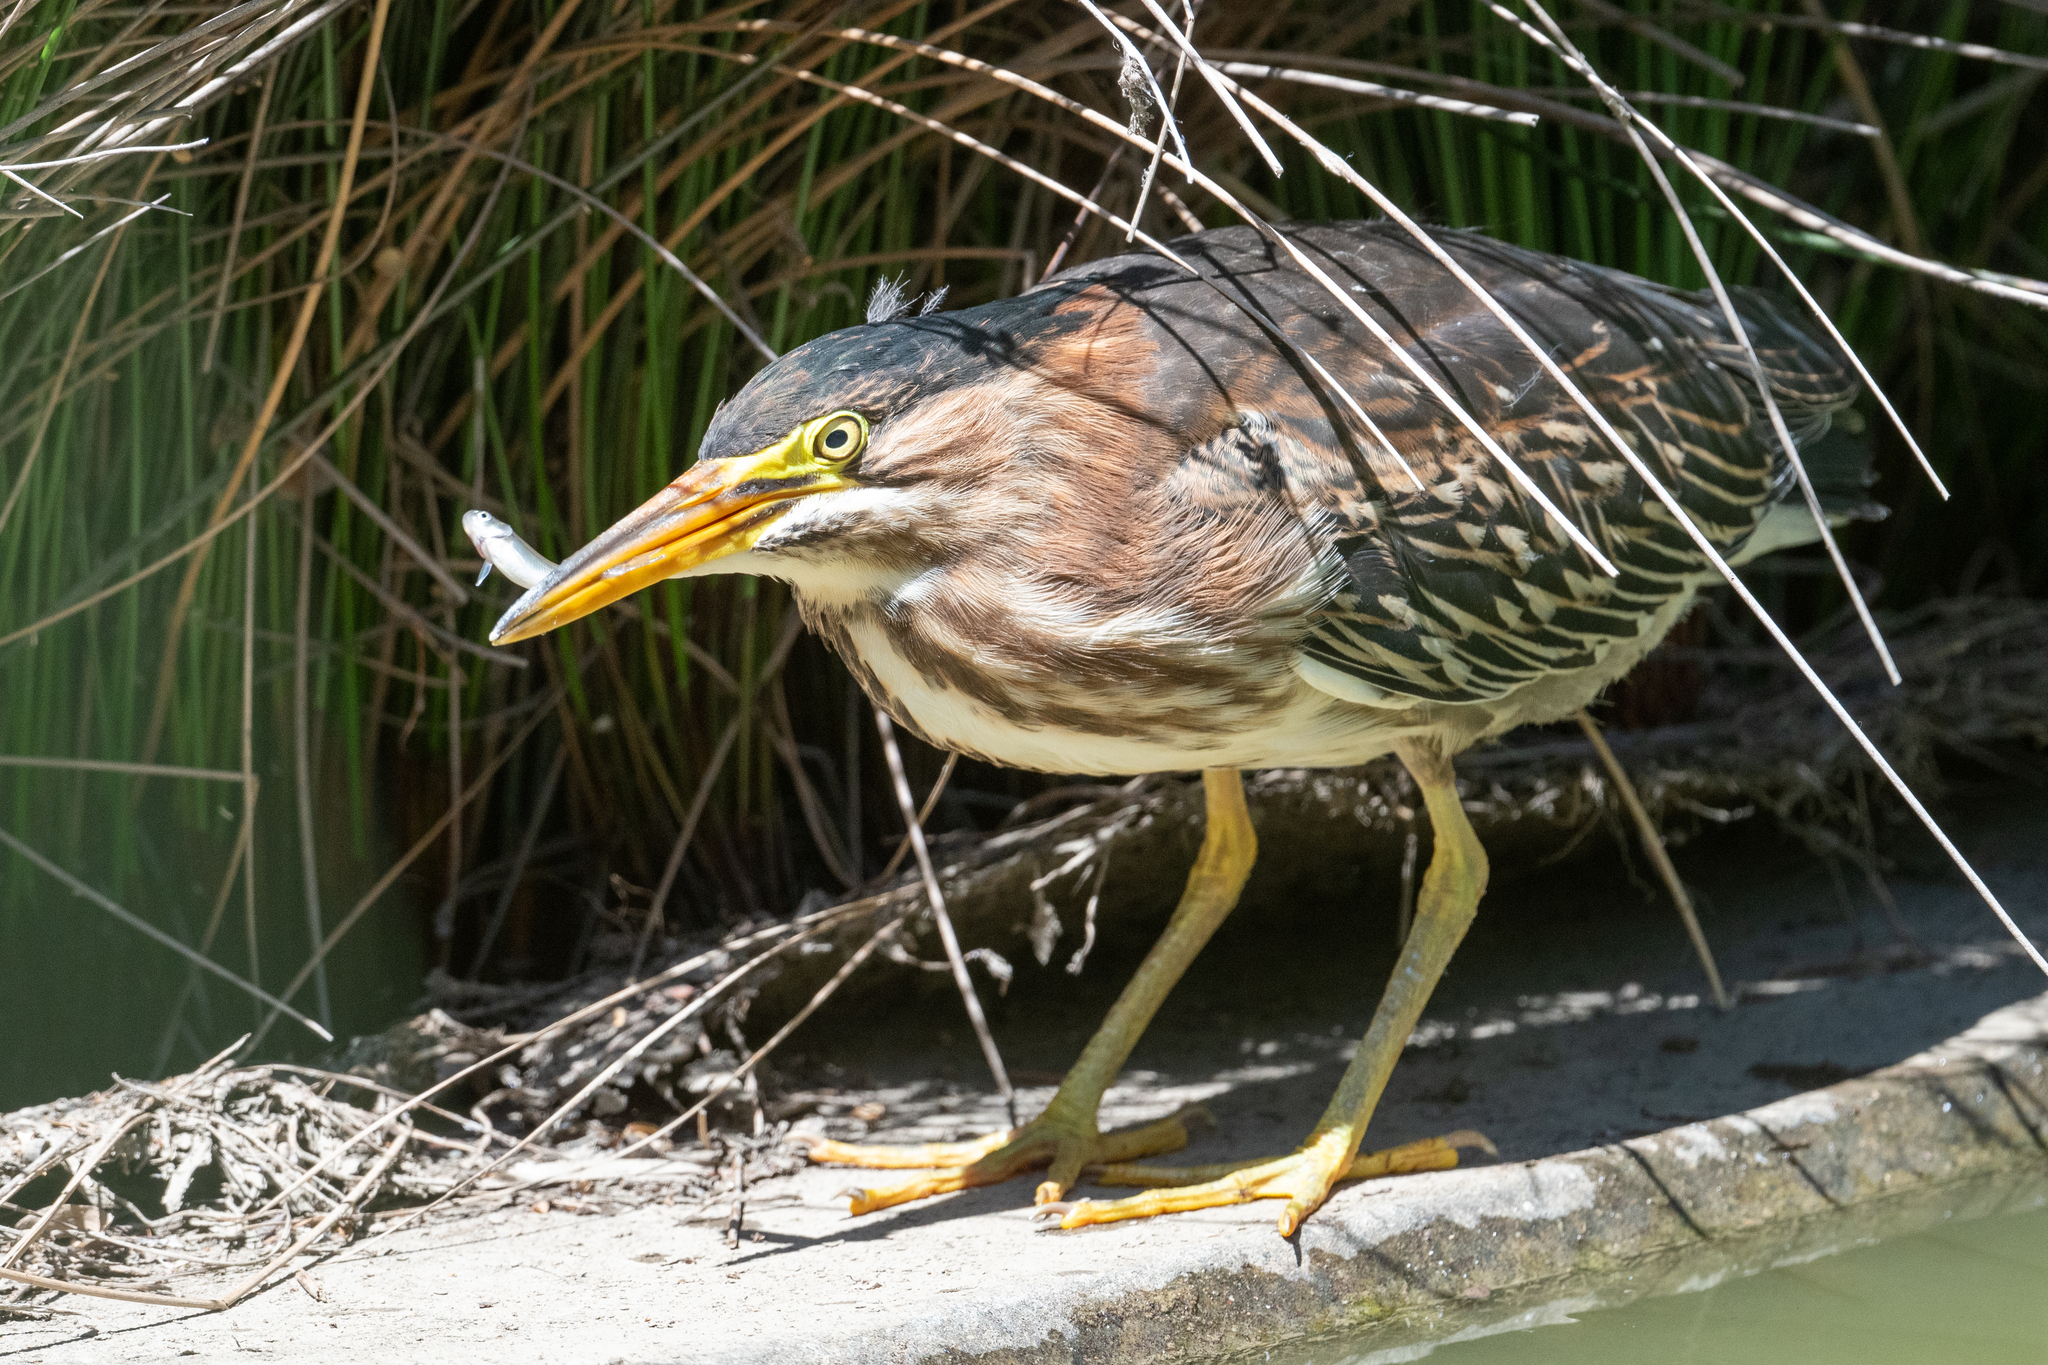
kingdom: Animalia
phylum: Chordata
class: Aves
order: Pelecaniformes
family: Ardeidae
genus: Butorides
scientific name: Butorides virescens
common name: Green heron
